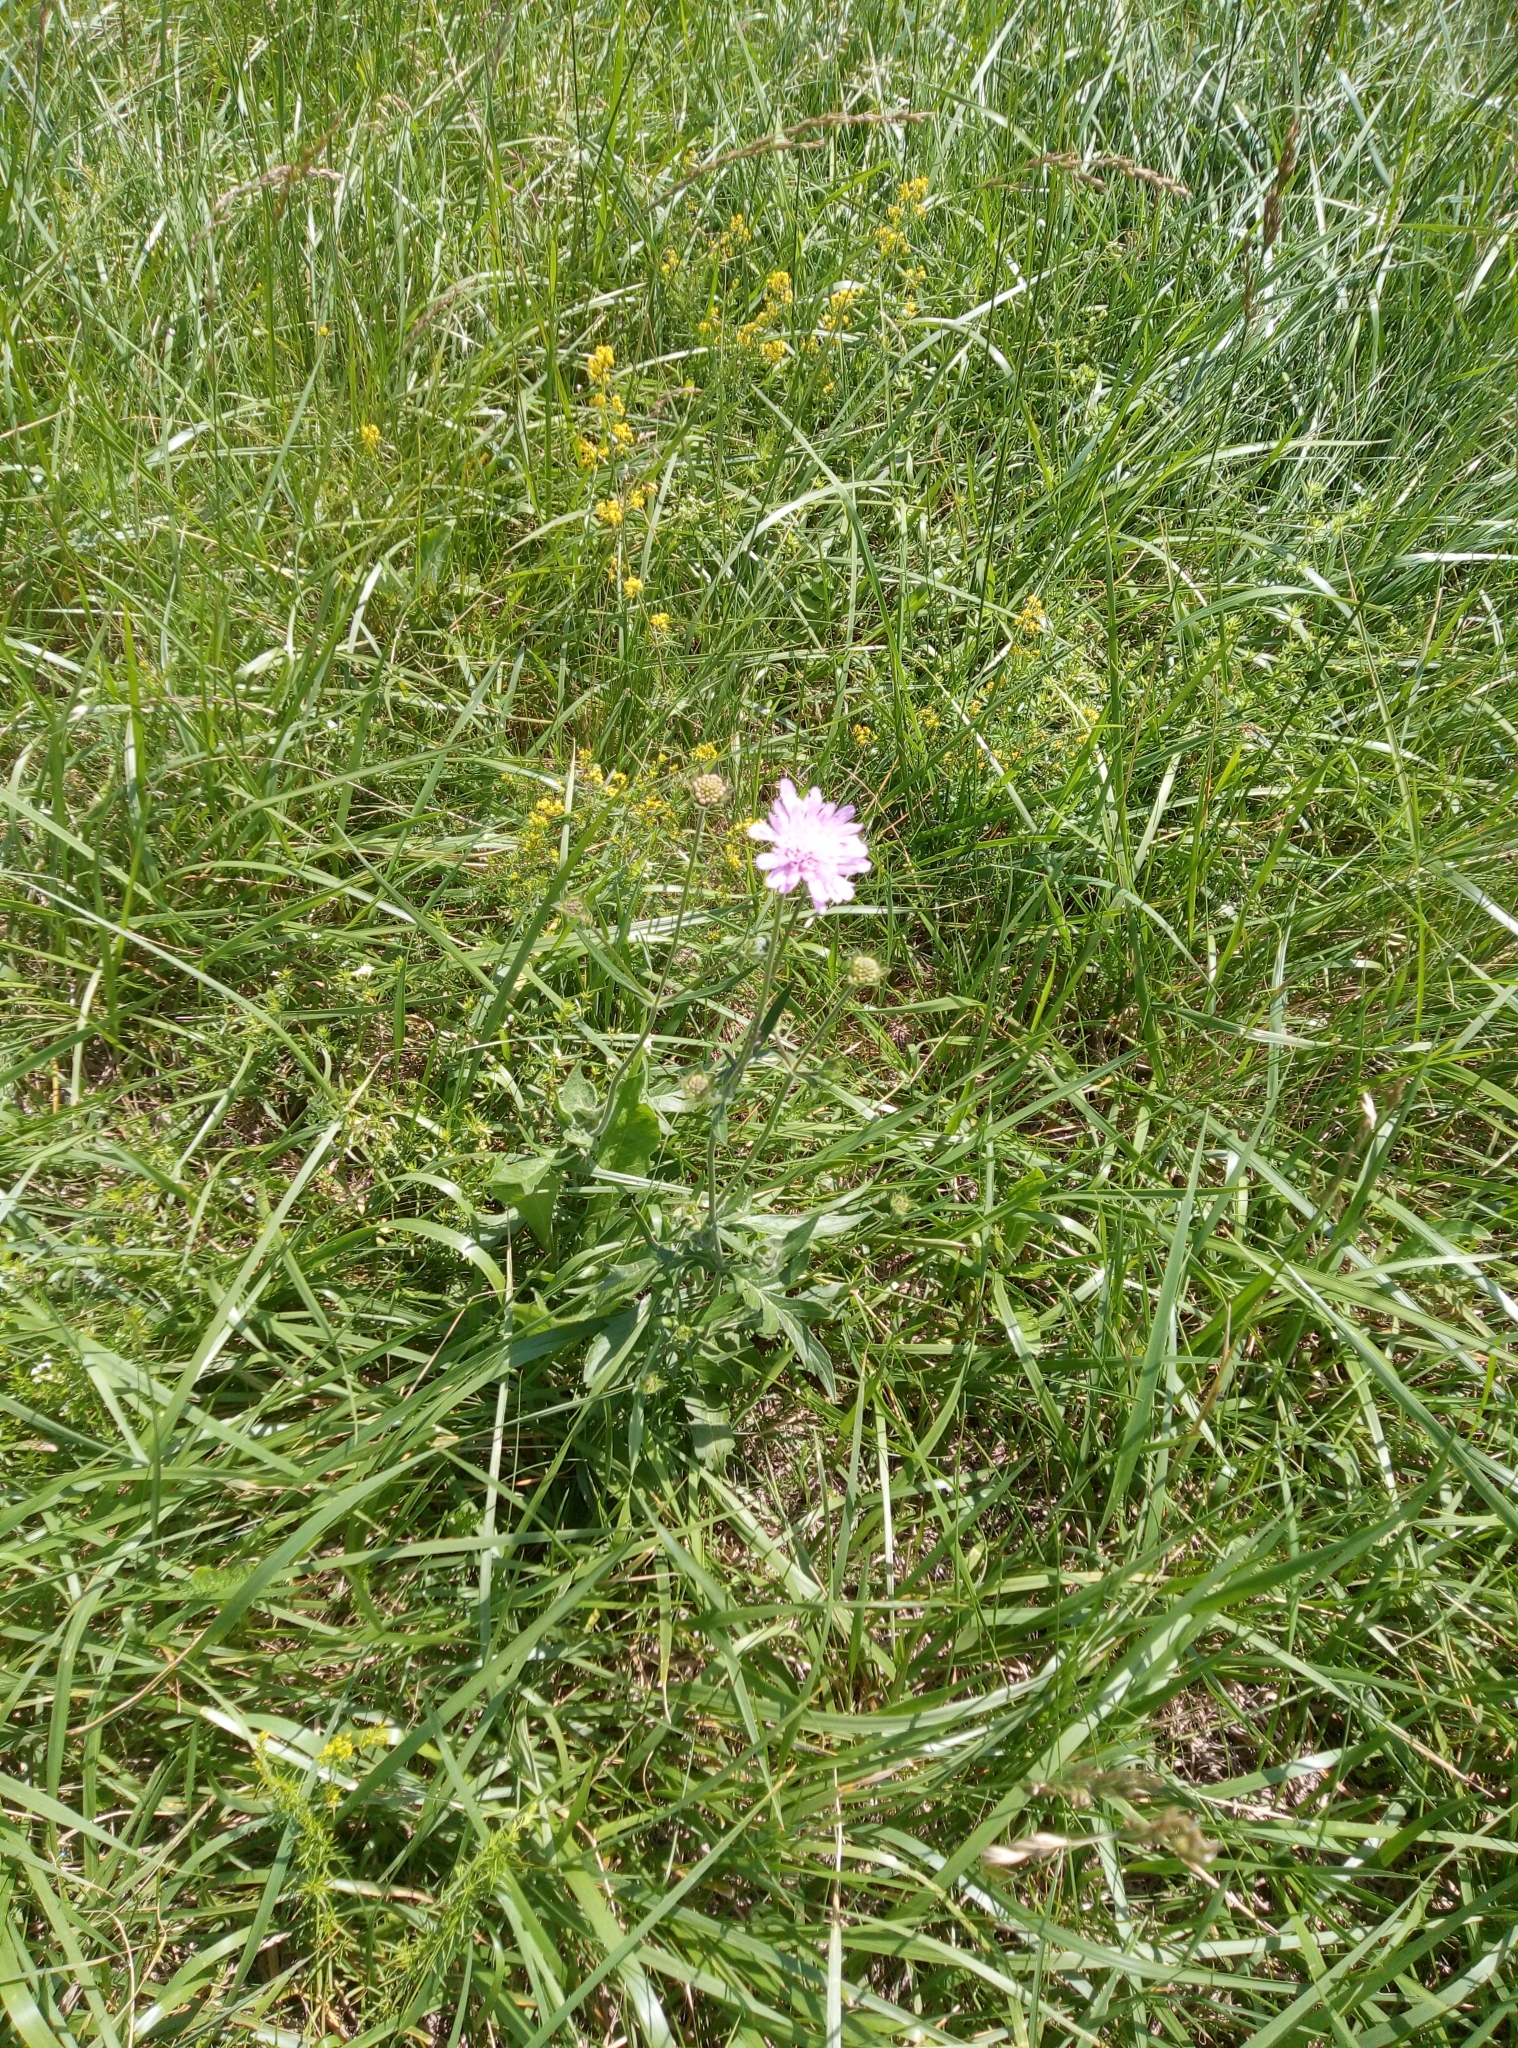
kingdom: Plantae
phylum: Tracheophyta
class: Magnoliopsida
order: Dipsacales
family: Caprifoliaceae
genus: Knautia
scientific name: Knautia arvensis
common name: Field scabiosa
